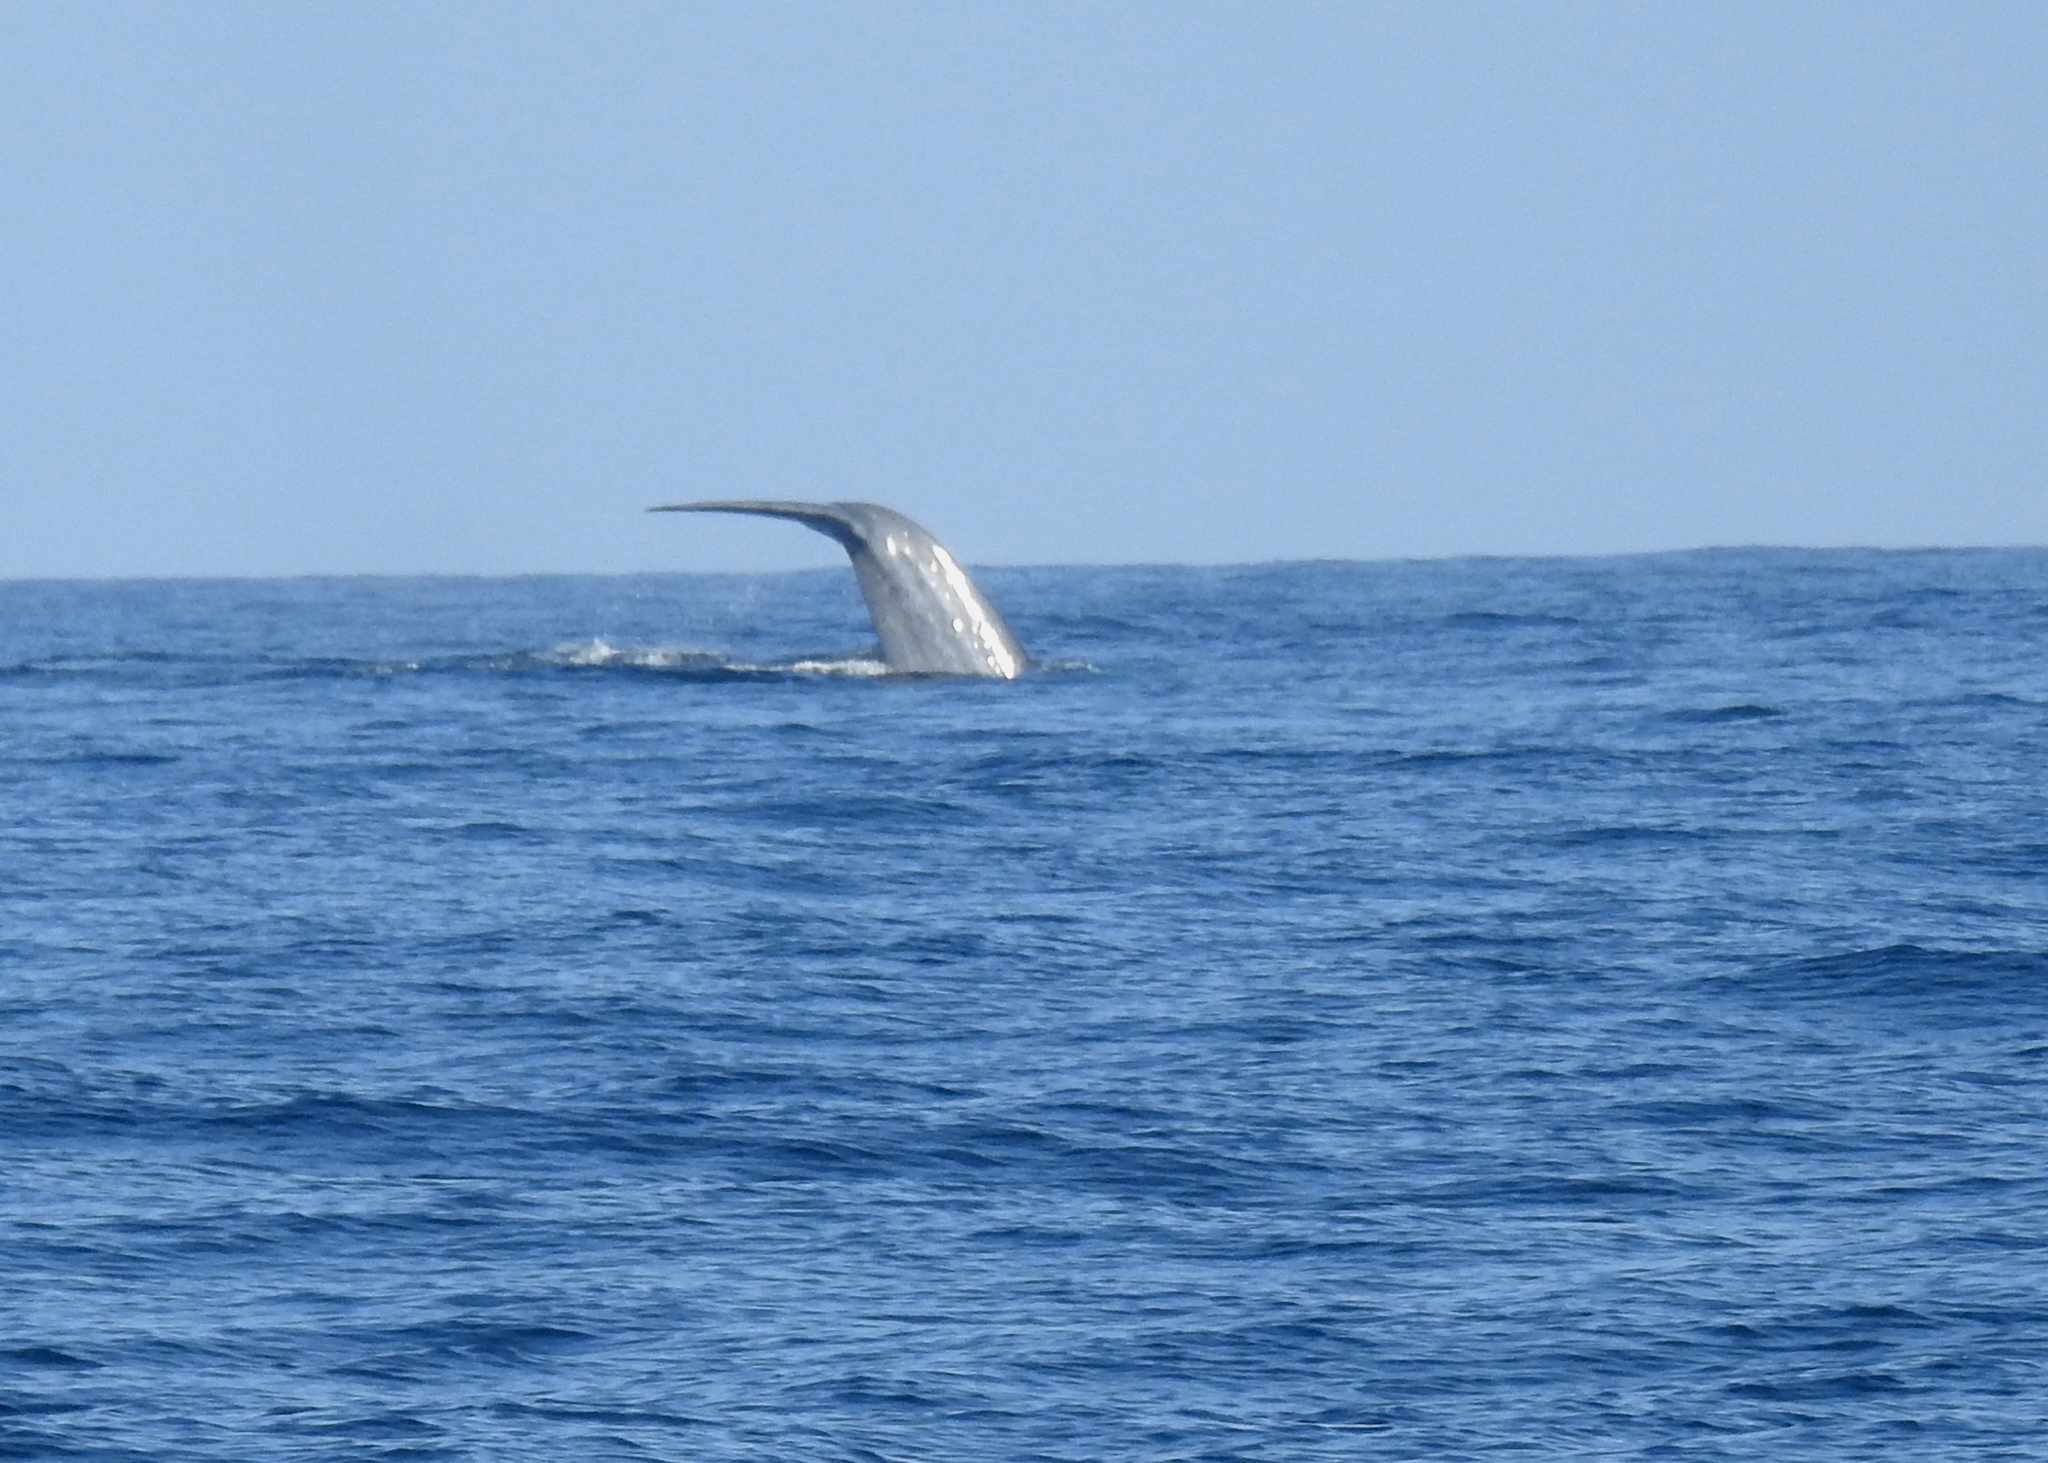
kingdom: Animalia
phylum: Chordata
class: Mammalia
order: Cetacea
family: Balaenopteridae
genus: Balaenoptera
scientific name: Balaenoptera musculus
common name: Blue whale
